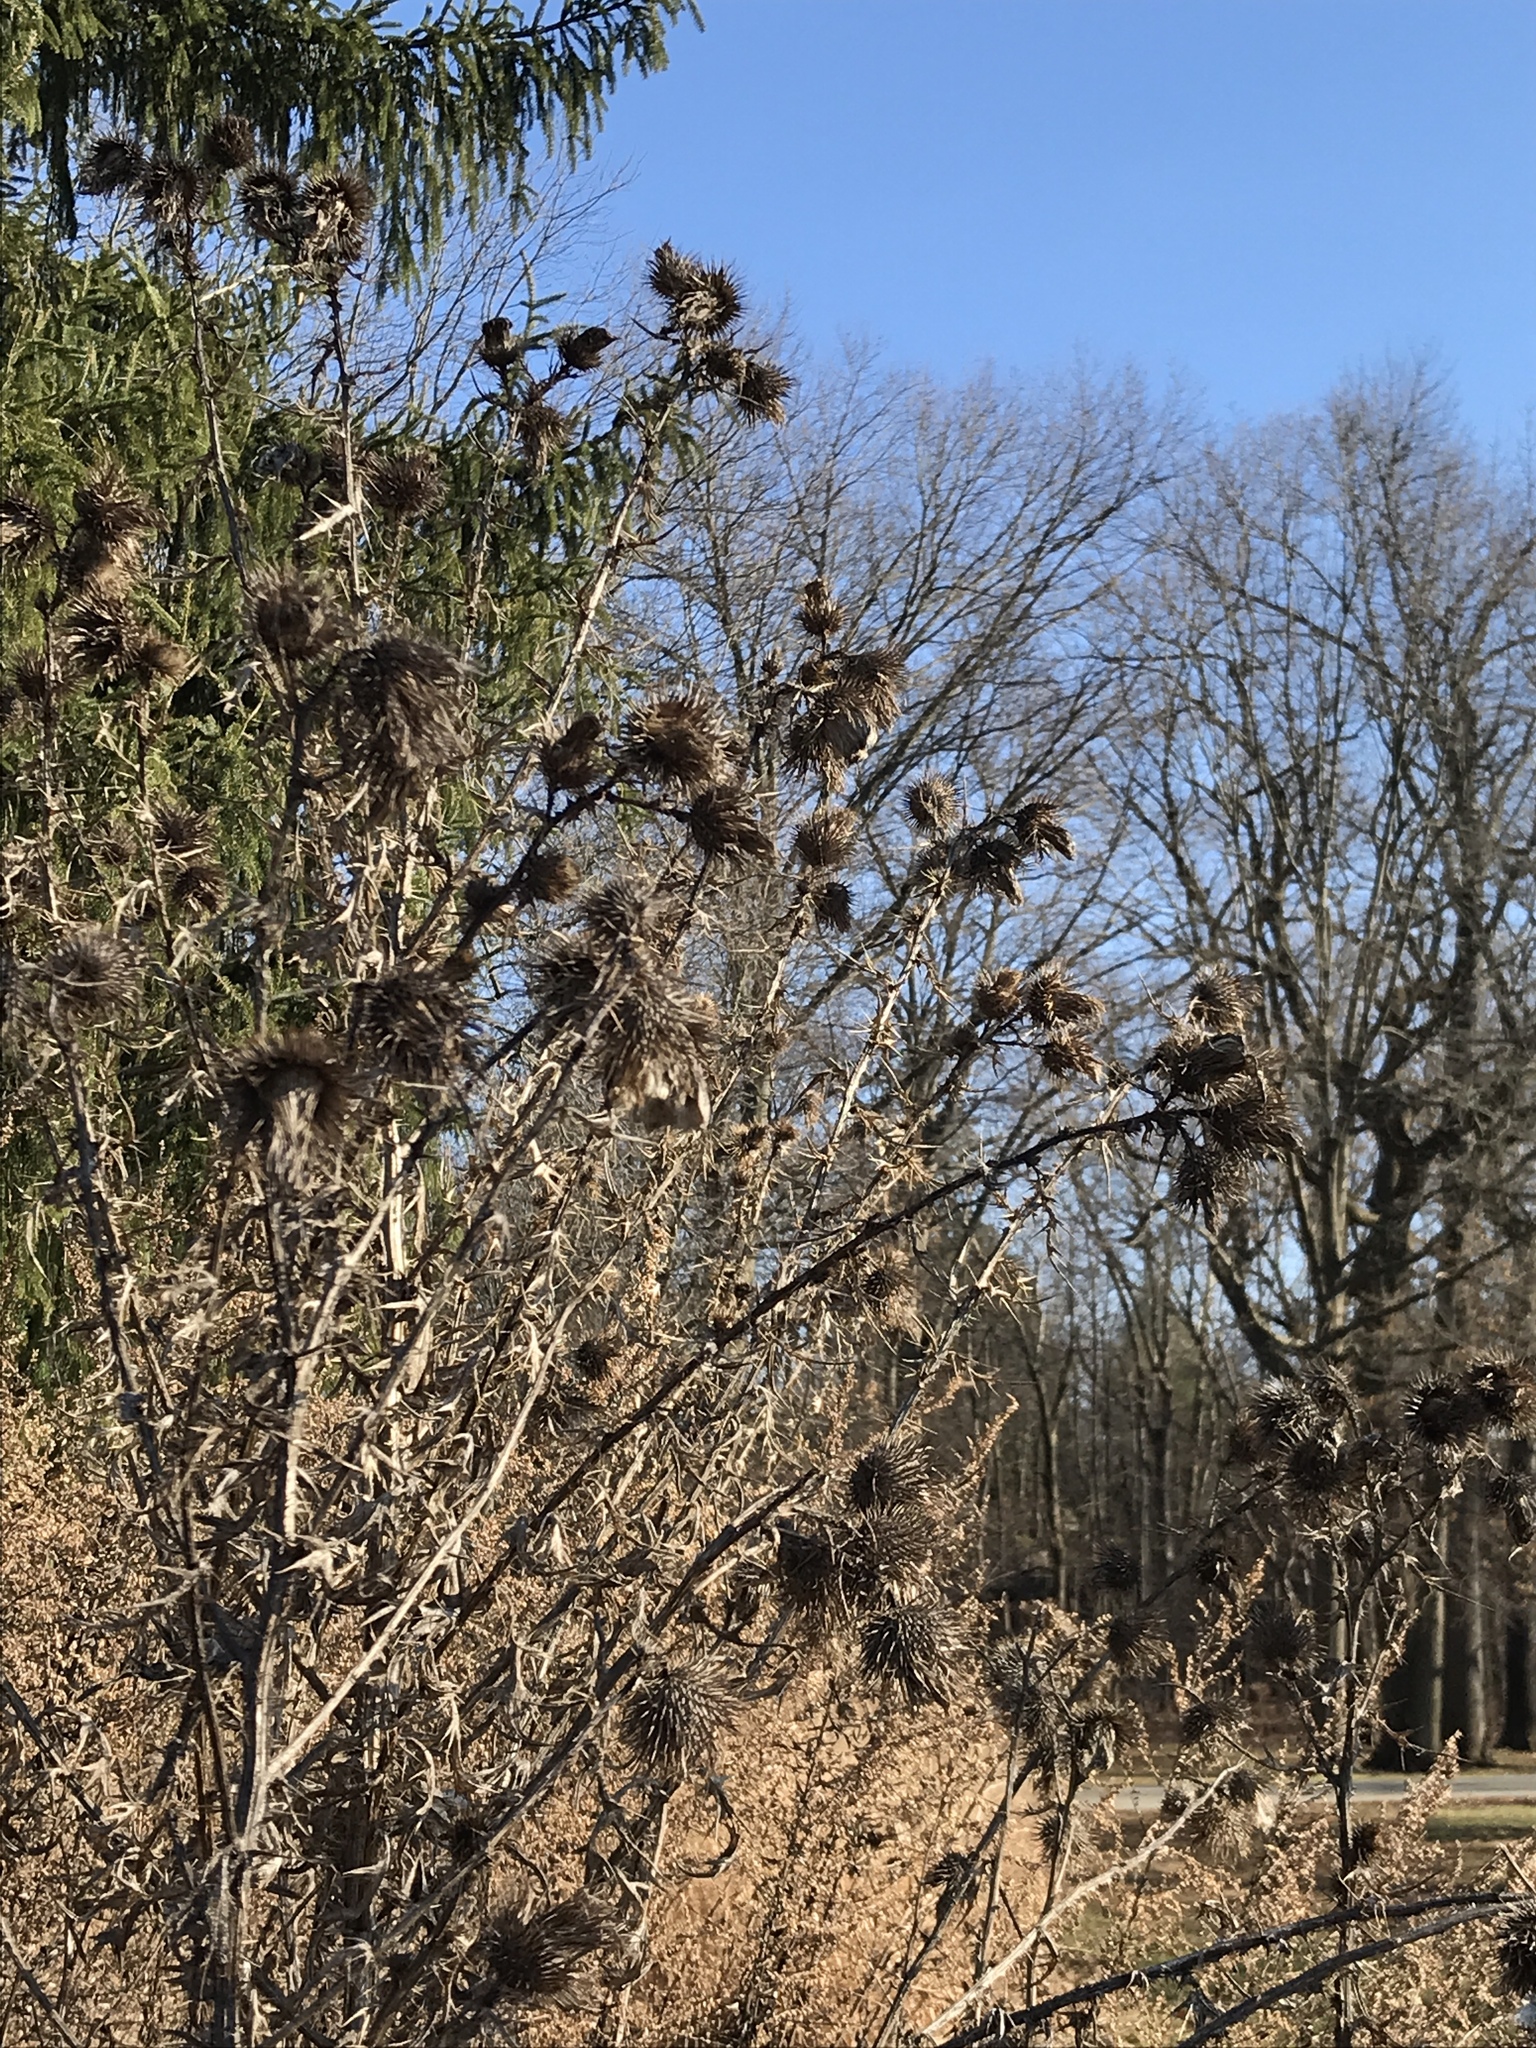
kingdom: Plantae
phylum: Tracheophyta
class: Magnoliopsida
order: Asterales
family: Asteraceae
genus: Cirsium
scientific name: Cirsium vulgare
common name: Bull thistle
